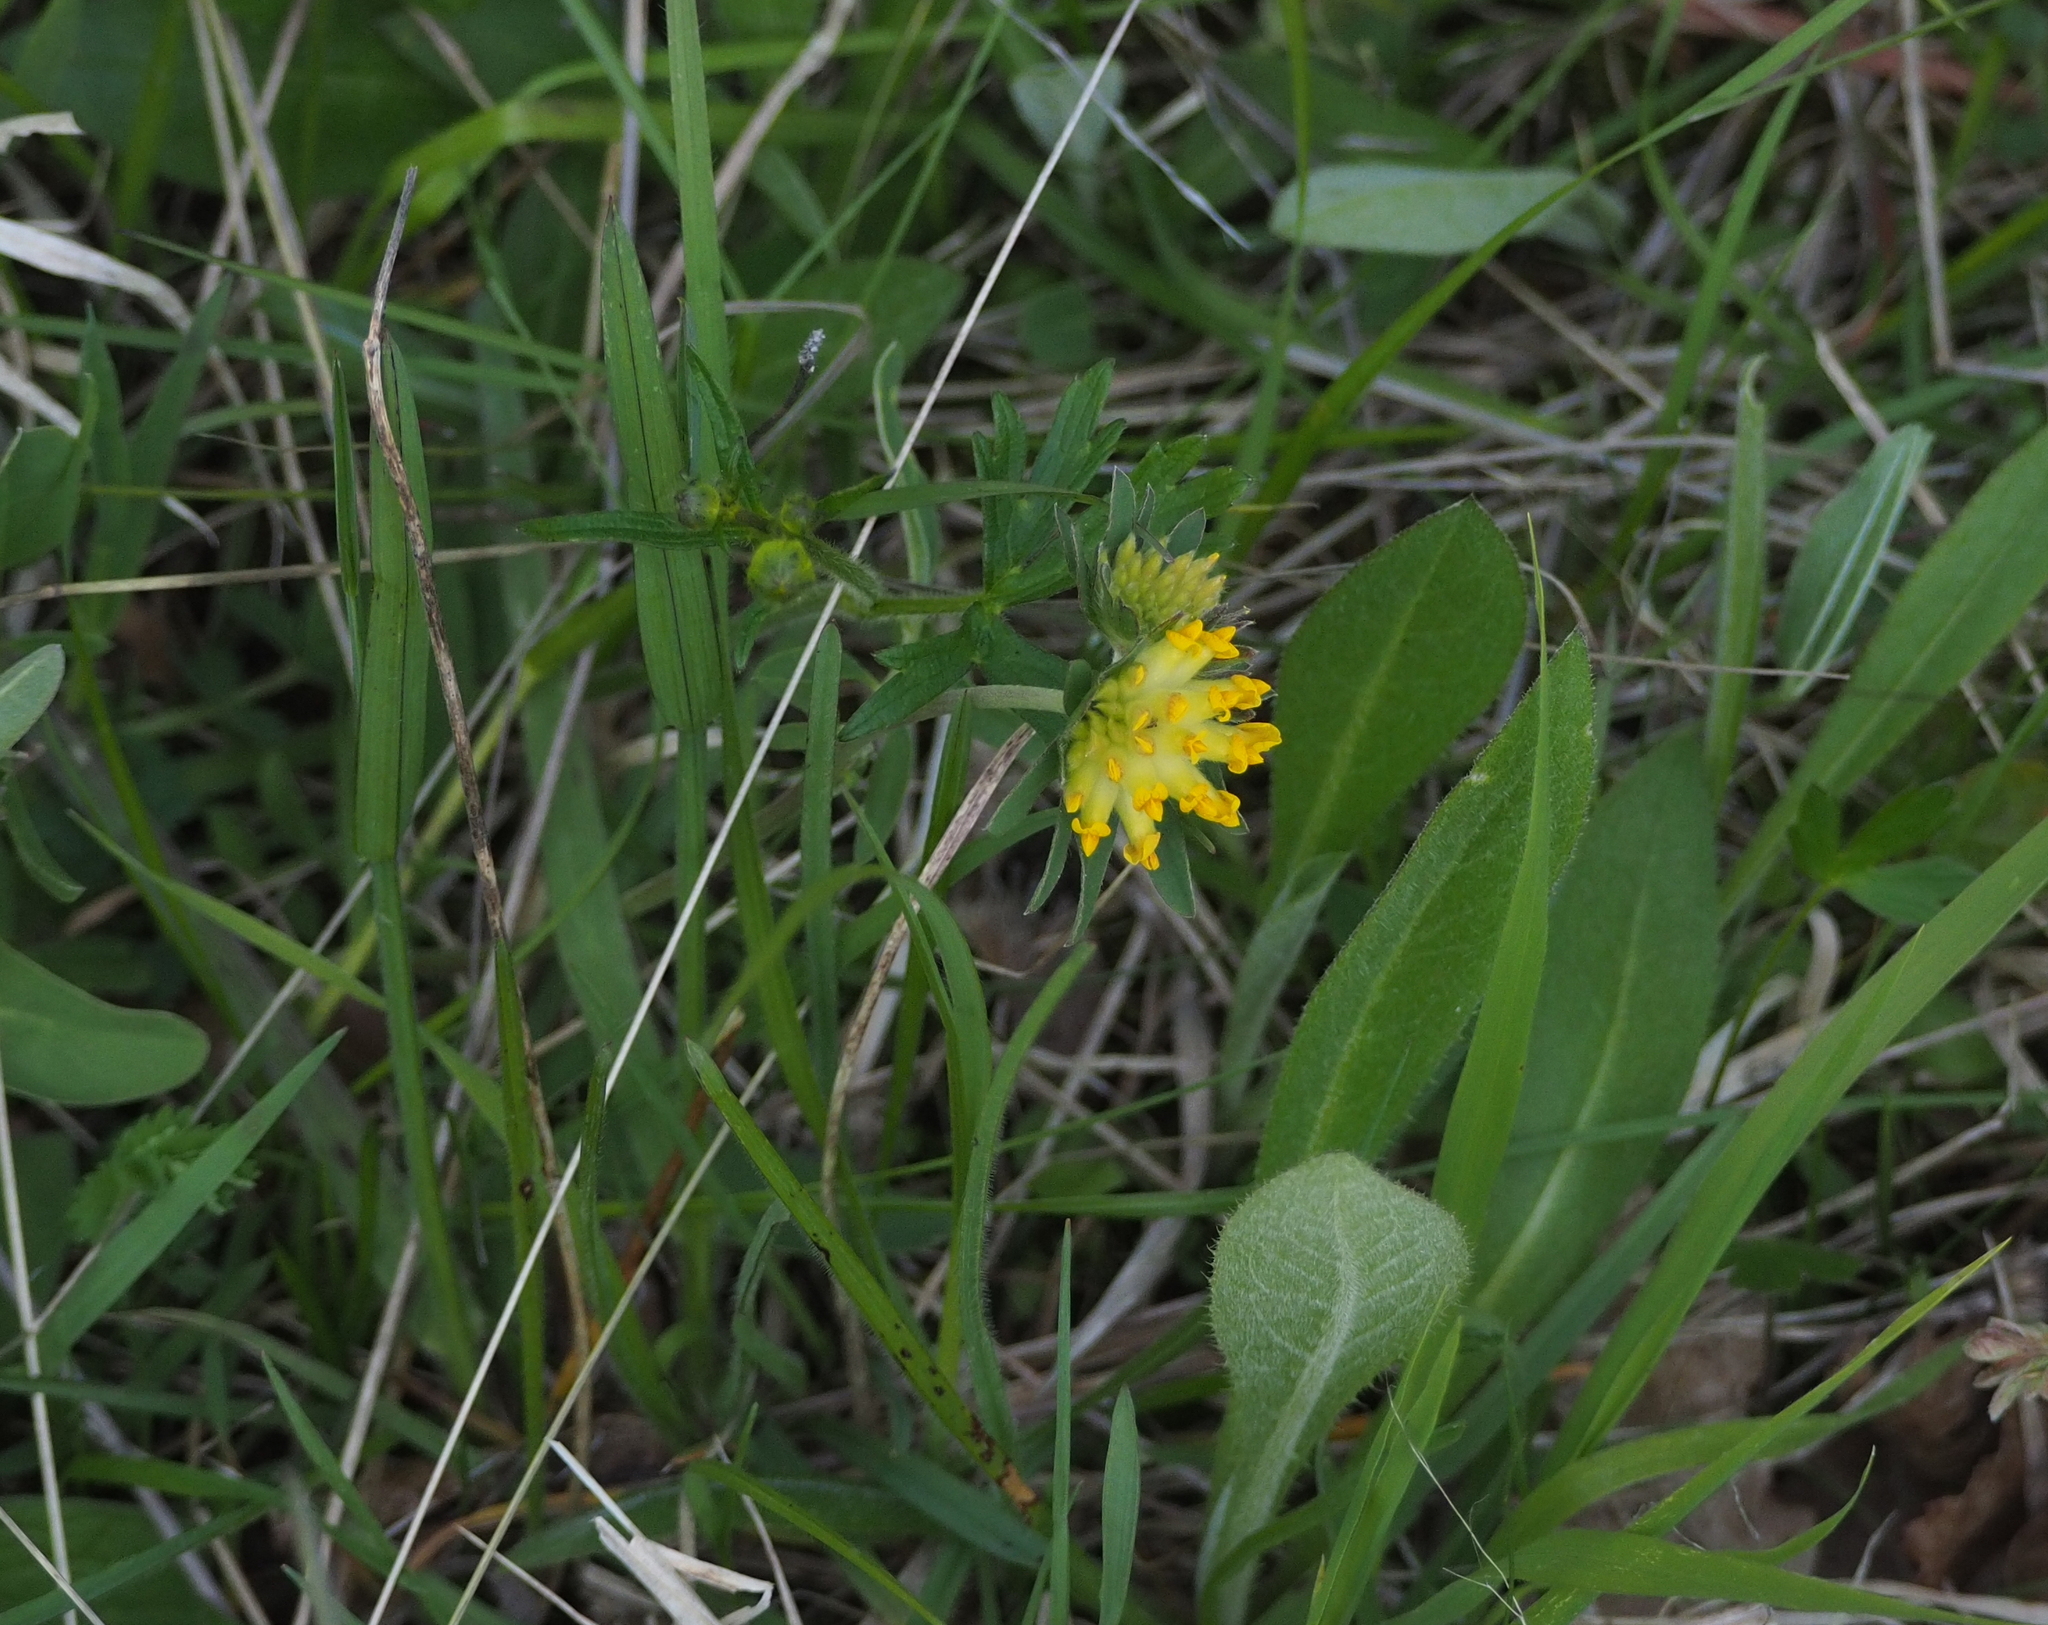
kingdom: Plantae
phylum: Tracheophyta
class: Magnoliopsida
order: Fabales
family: Fabaceae
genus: Anthyllis
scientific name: Anthyllis vulneraria
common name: Kidney vetch
